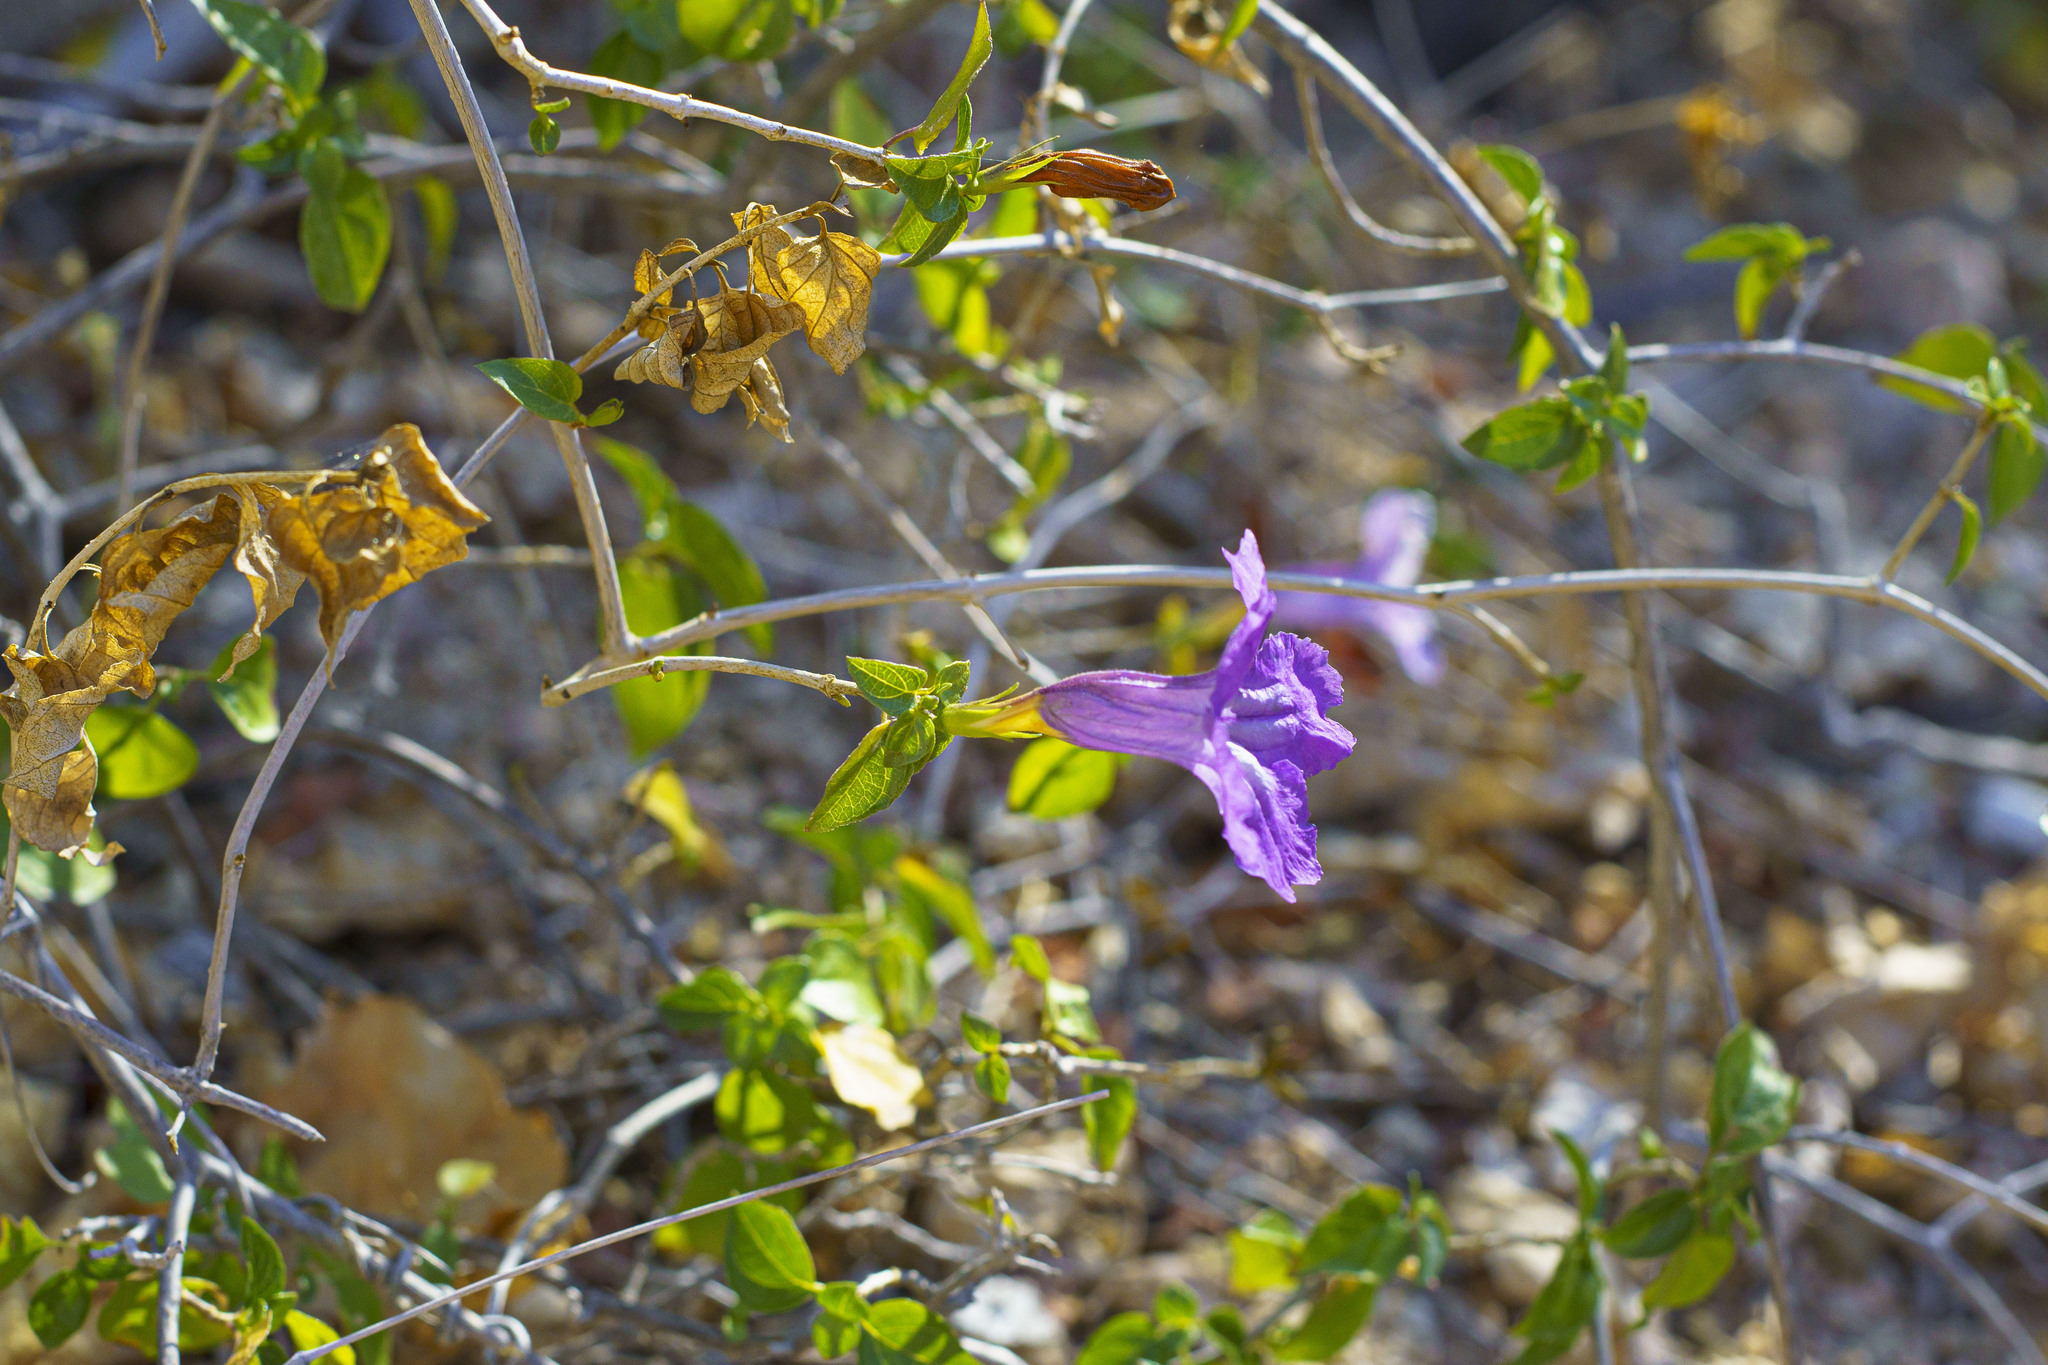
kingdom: Plantae
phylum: Tracheophyta
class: Magnoliopsida
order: Lamiales
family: Acanthaceae
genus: Ruellia
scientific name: Ruellia californica
